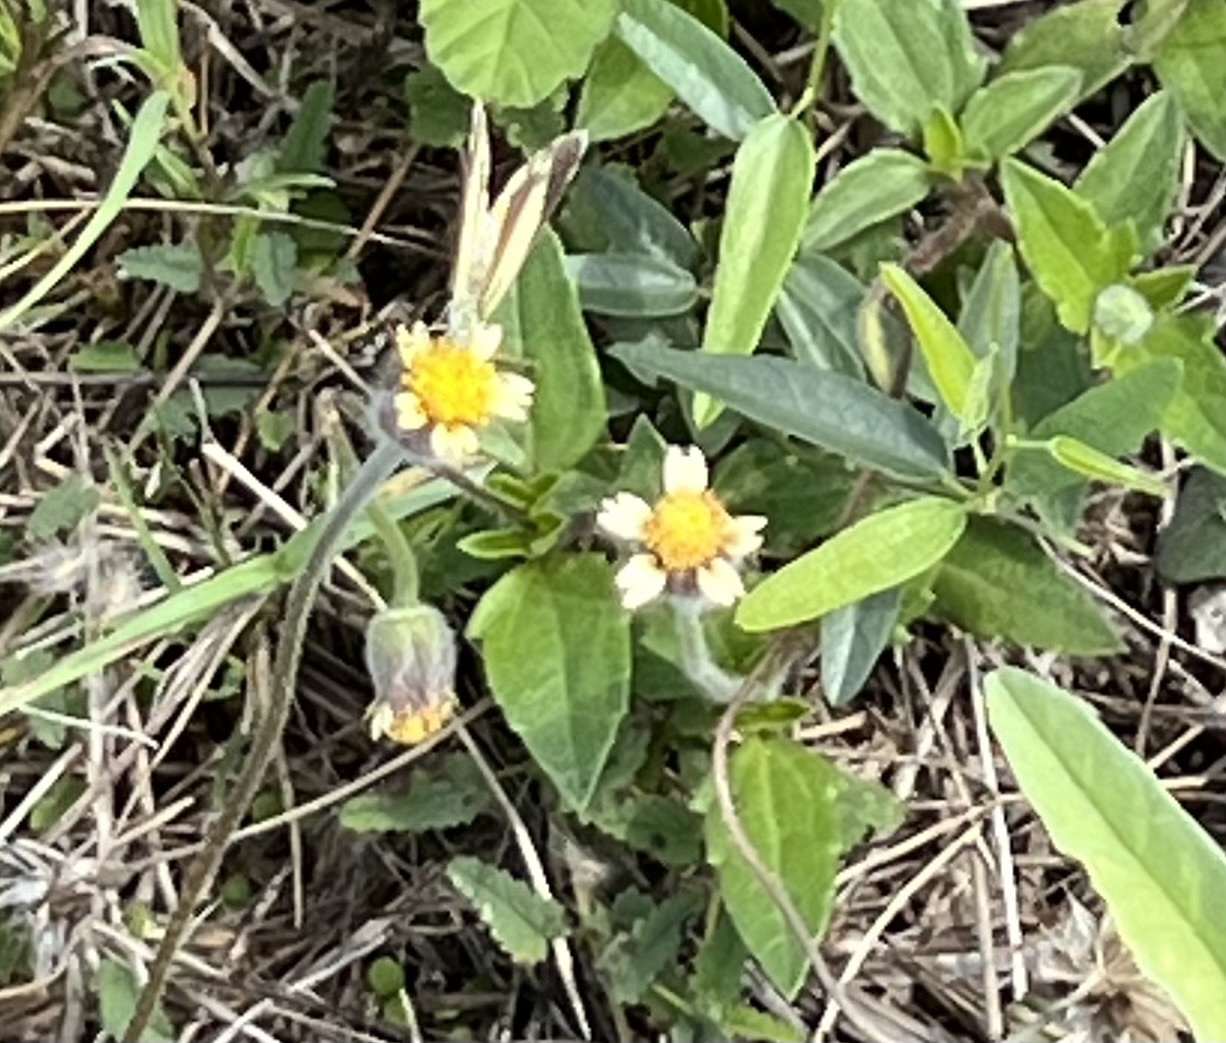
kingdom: Plantae
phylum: Tracheophyta
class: Magnoliopsida
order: Asterales
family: Asteraceae
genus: Tridax
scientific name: Tridax procumbens
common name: Coatbuttons
